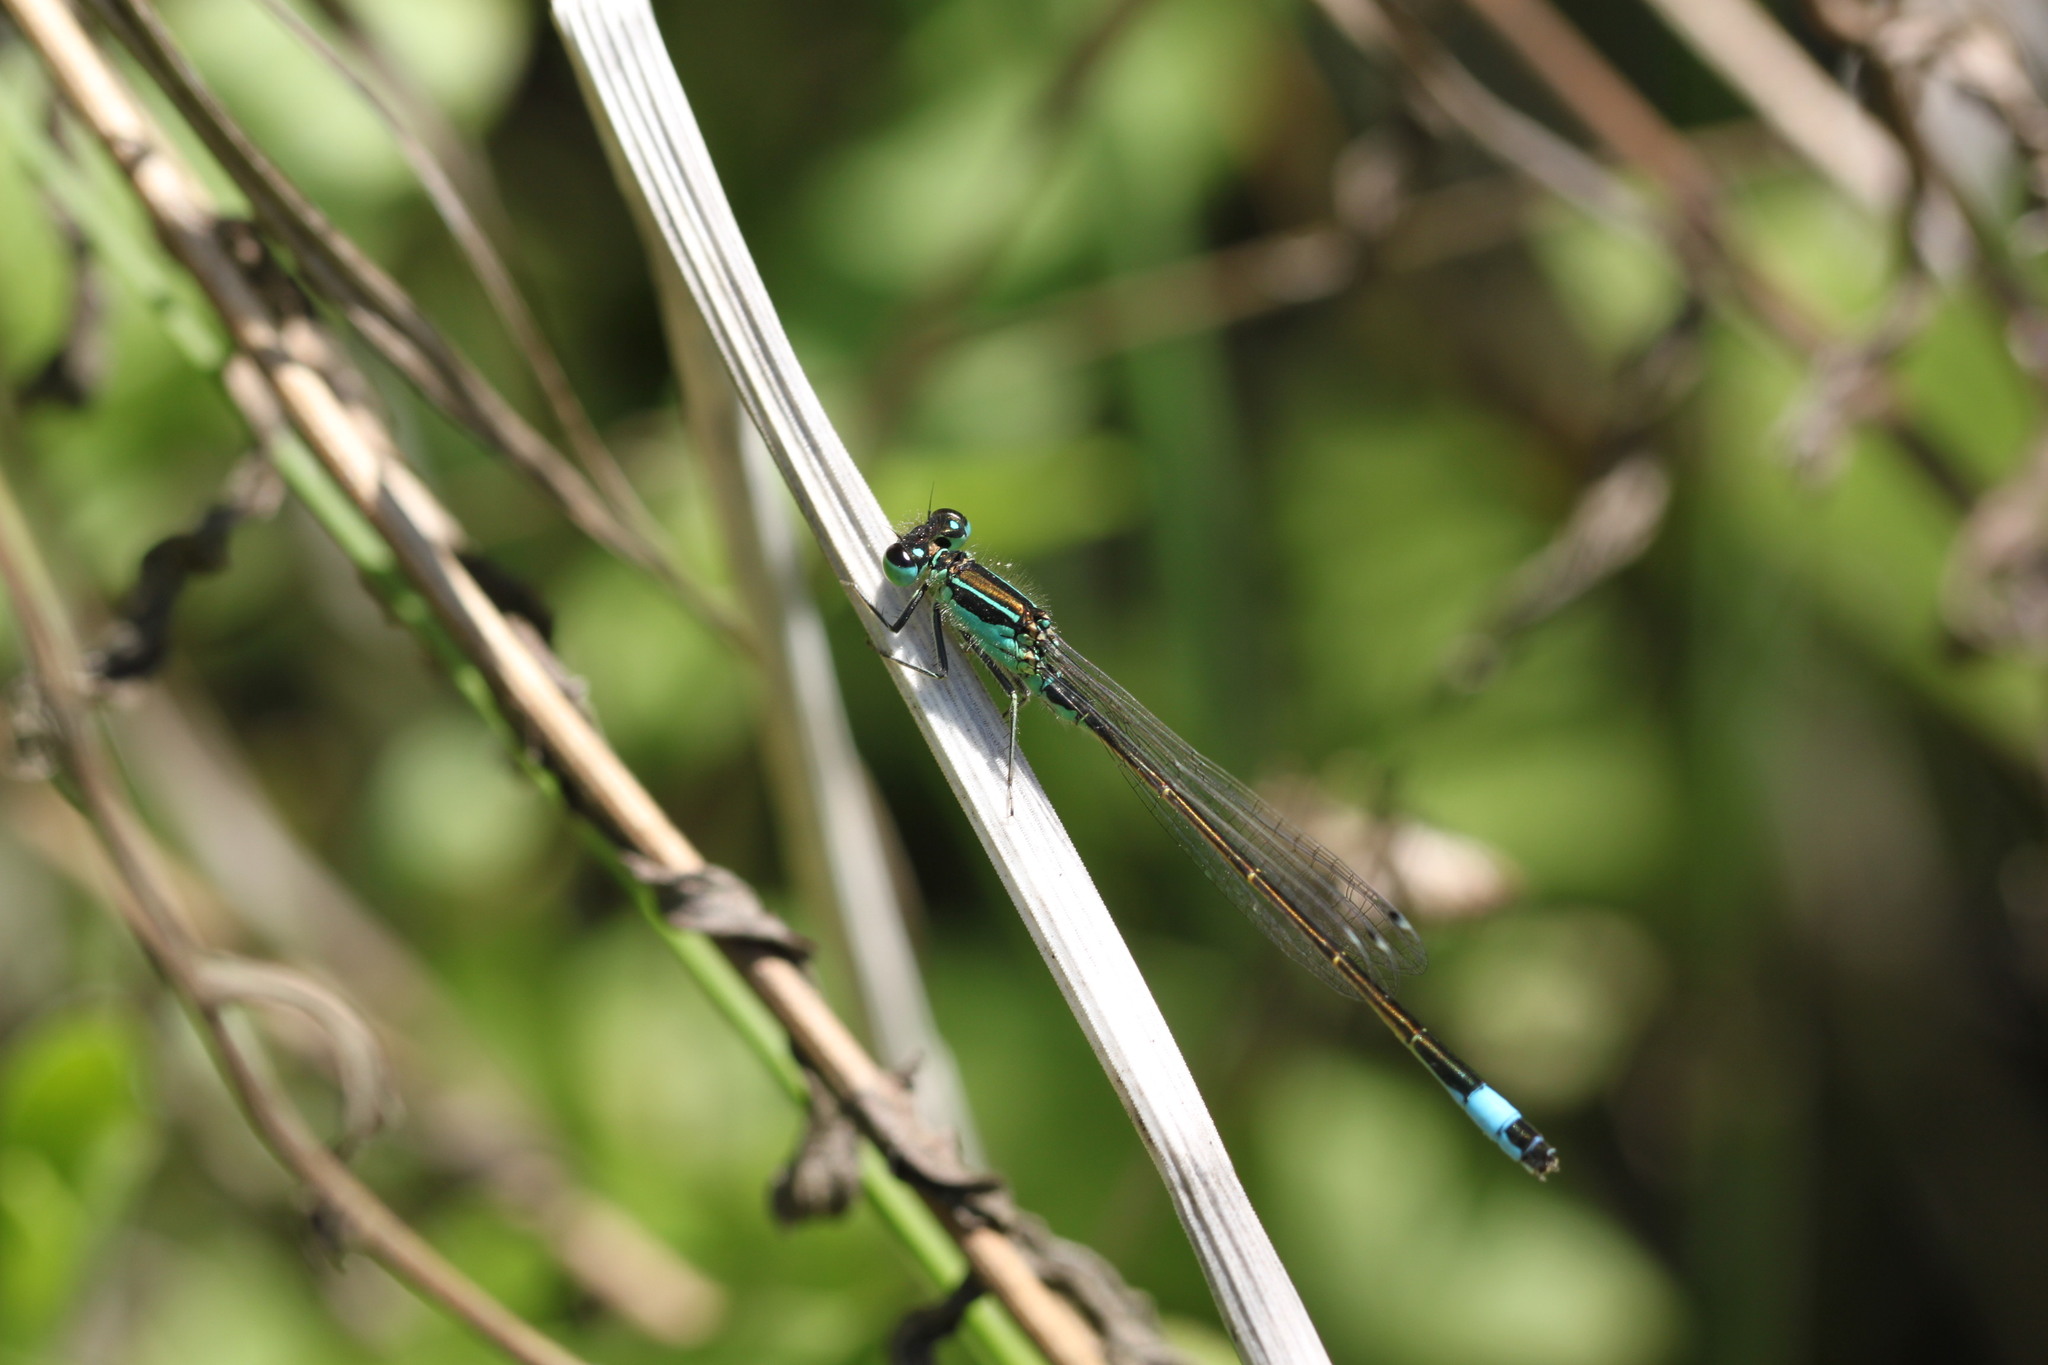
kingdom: Animalia
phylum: Arthropoda
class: Insecta
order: Odonata
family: Coenagrionidae
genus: Ischnura
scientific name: Ischnura elegans
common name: Blue-tailed damselfly
